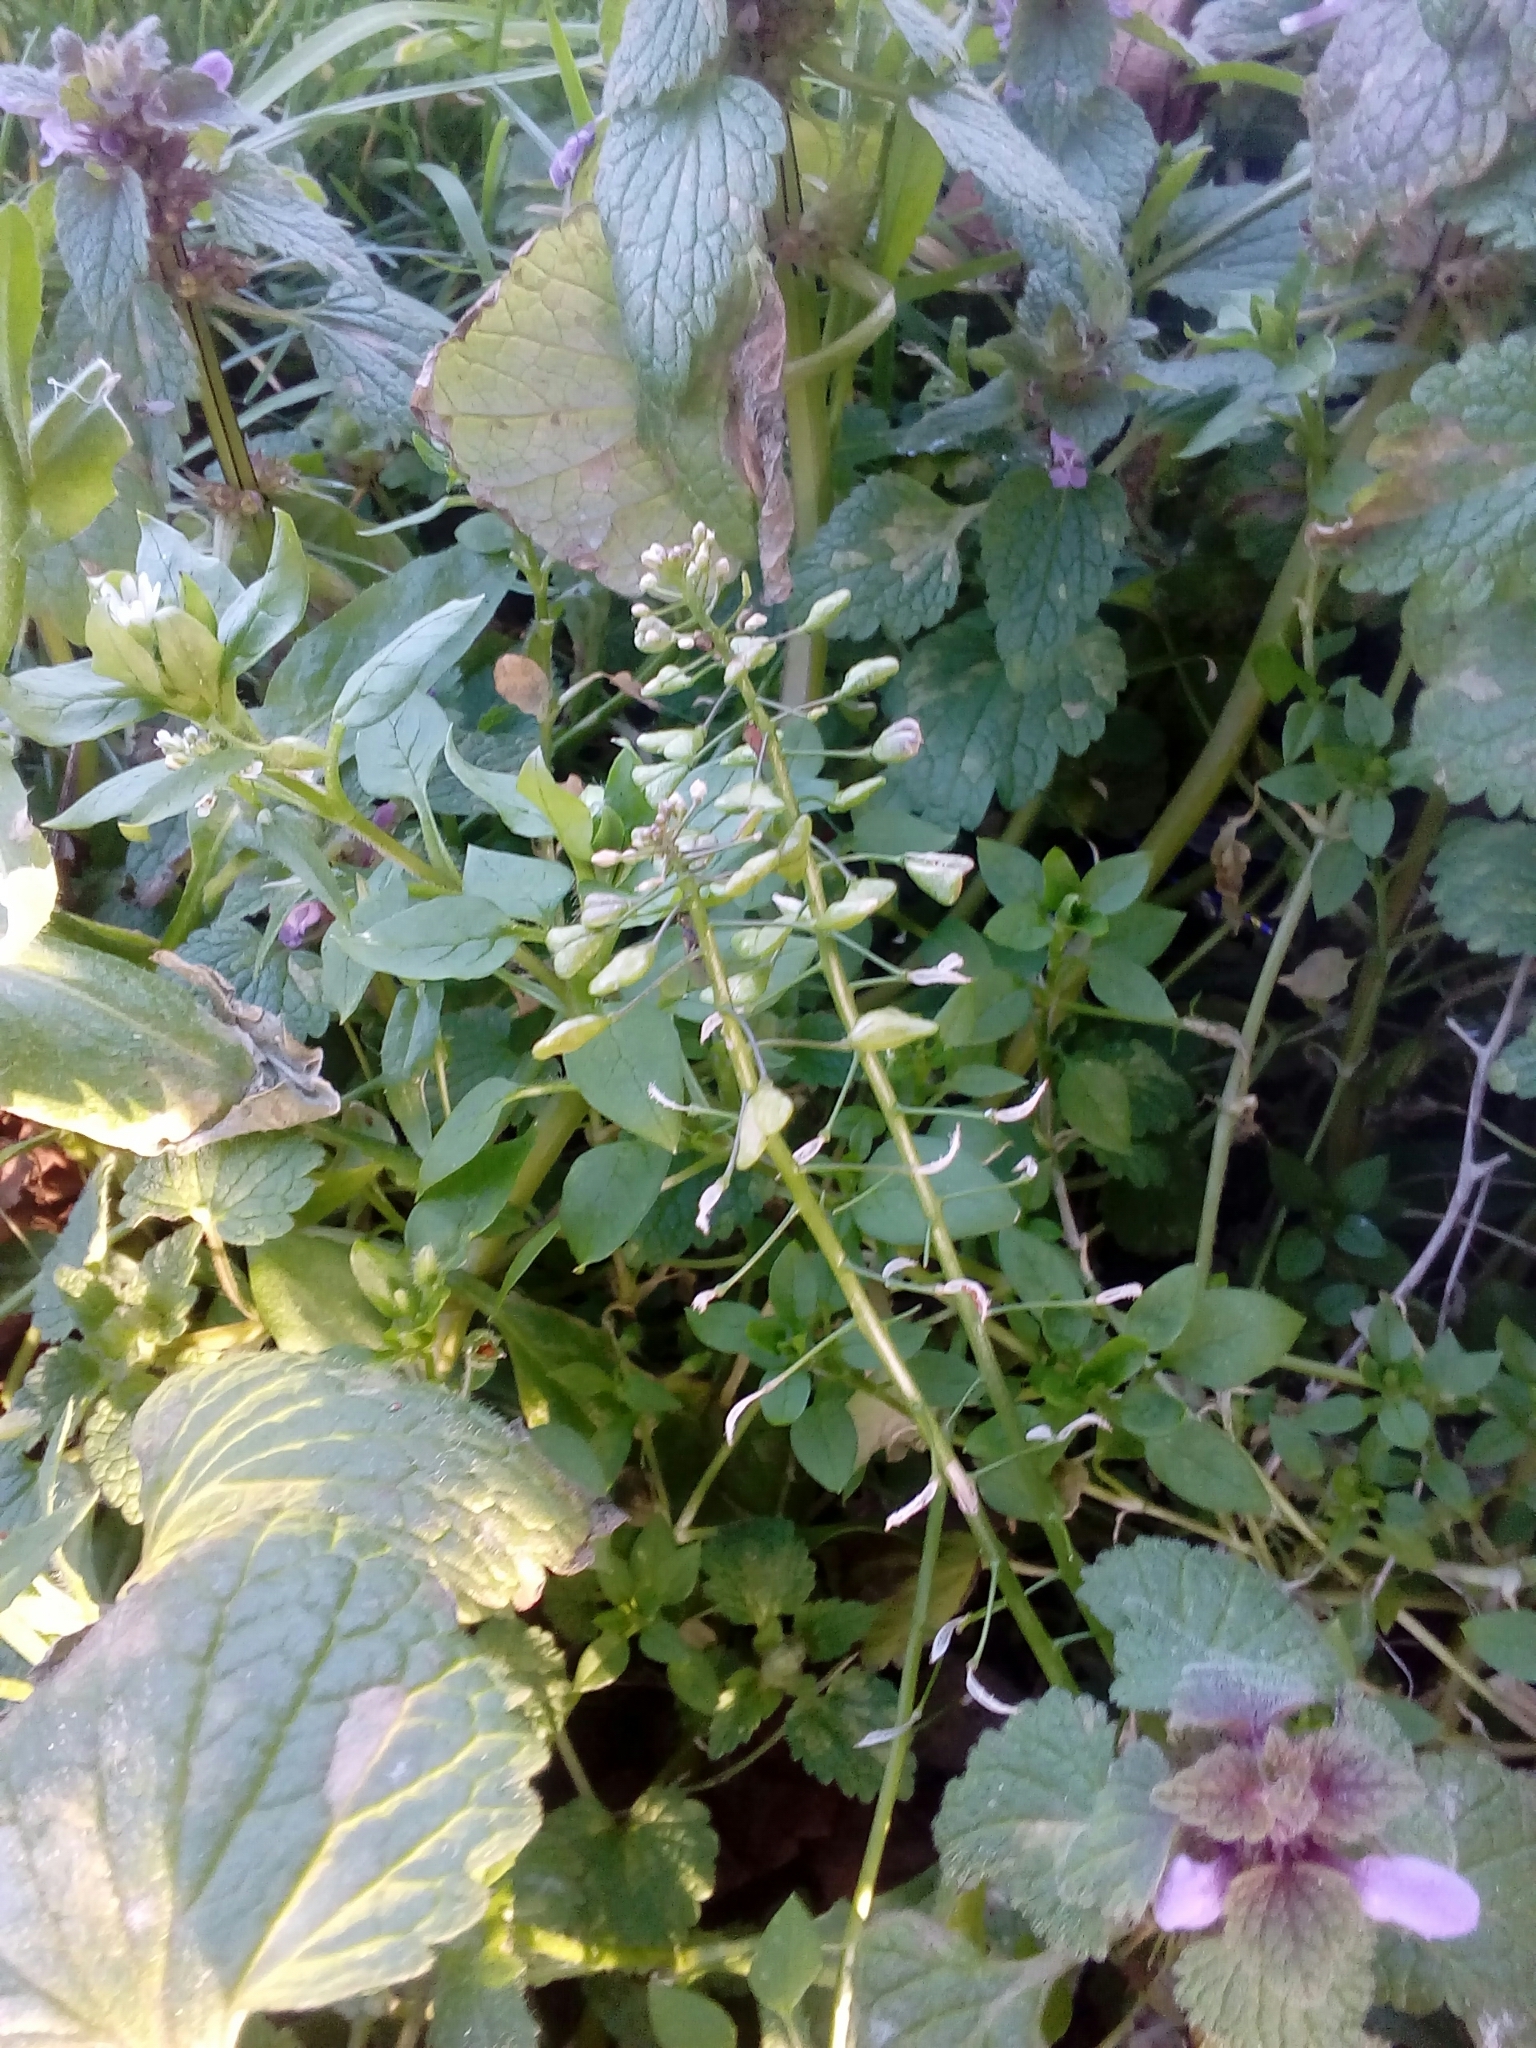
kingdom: Plantae
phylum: Tracheophyta
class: Magnoliopsida
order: Brassicales
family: Brassicaceae
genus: Capsella
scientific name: Capsella bursa-pastoris
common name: Shepherd's purse
